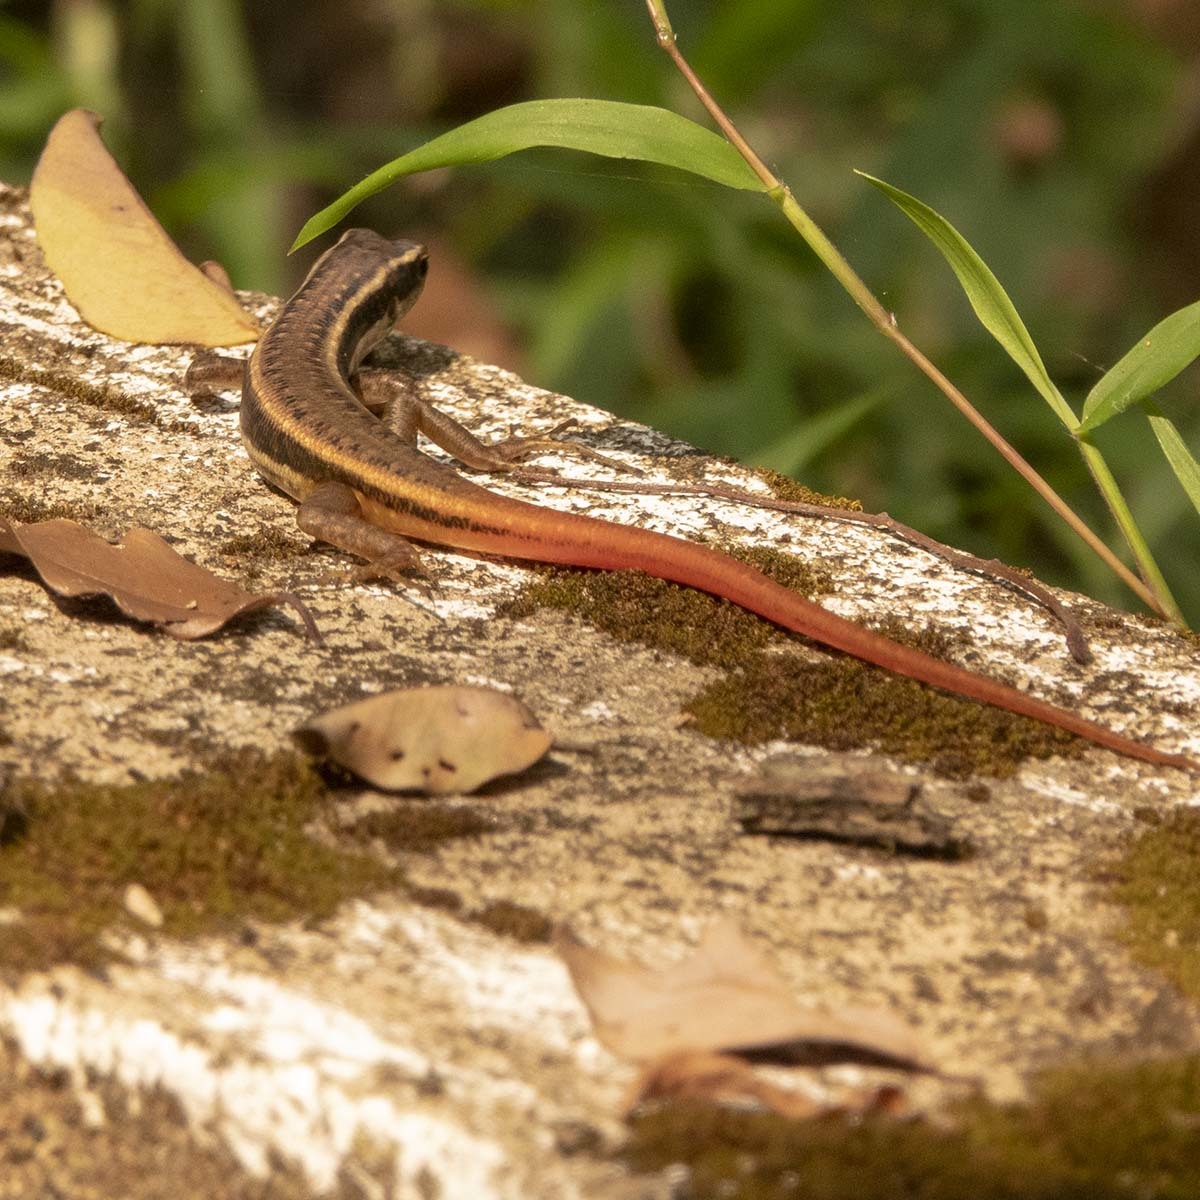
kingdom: Animalia
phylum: Chordata
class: Squamata
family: Scincidae
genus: Sphenomorphus
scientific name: Sphenomorphus dussumieri
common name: Dussumier's forest skink
